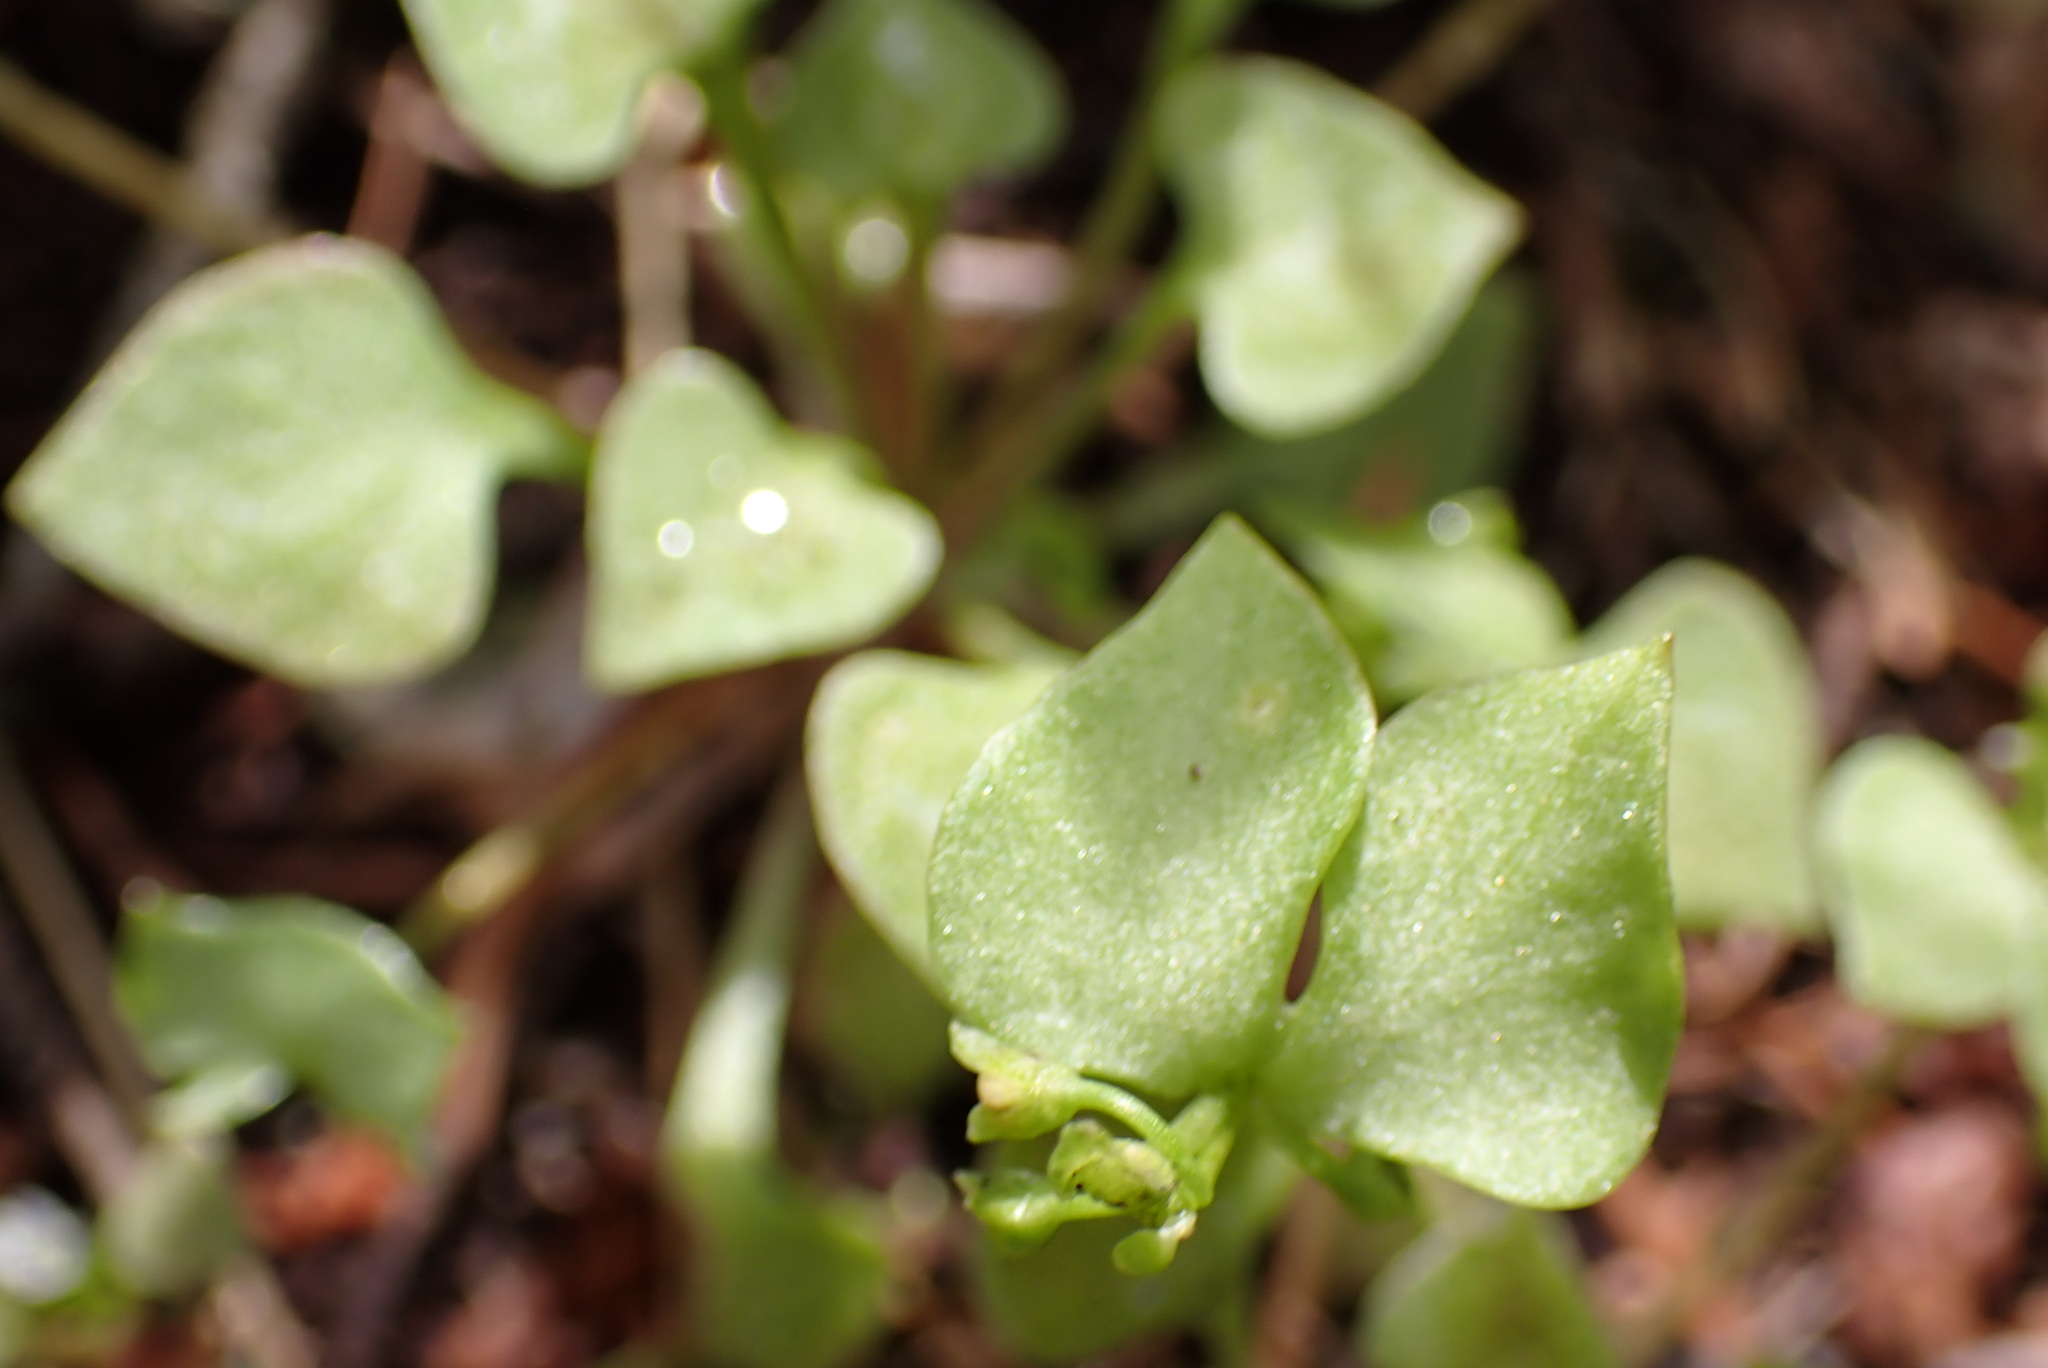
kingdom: Plantae
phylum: Tracheophyta
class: Magnoliopsida
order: Caryophyllales
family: Montiaceae
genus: Claytonia
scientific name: Claytonia rubra
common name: Erubescent miner's-lettuce
